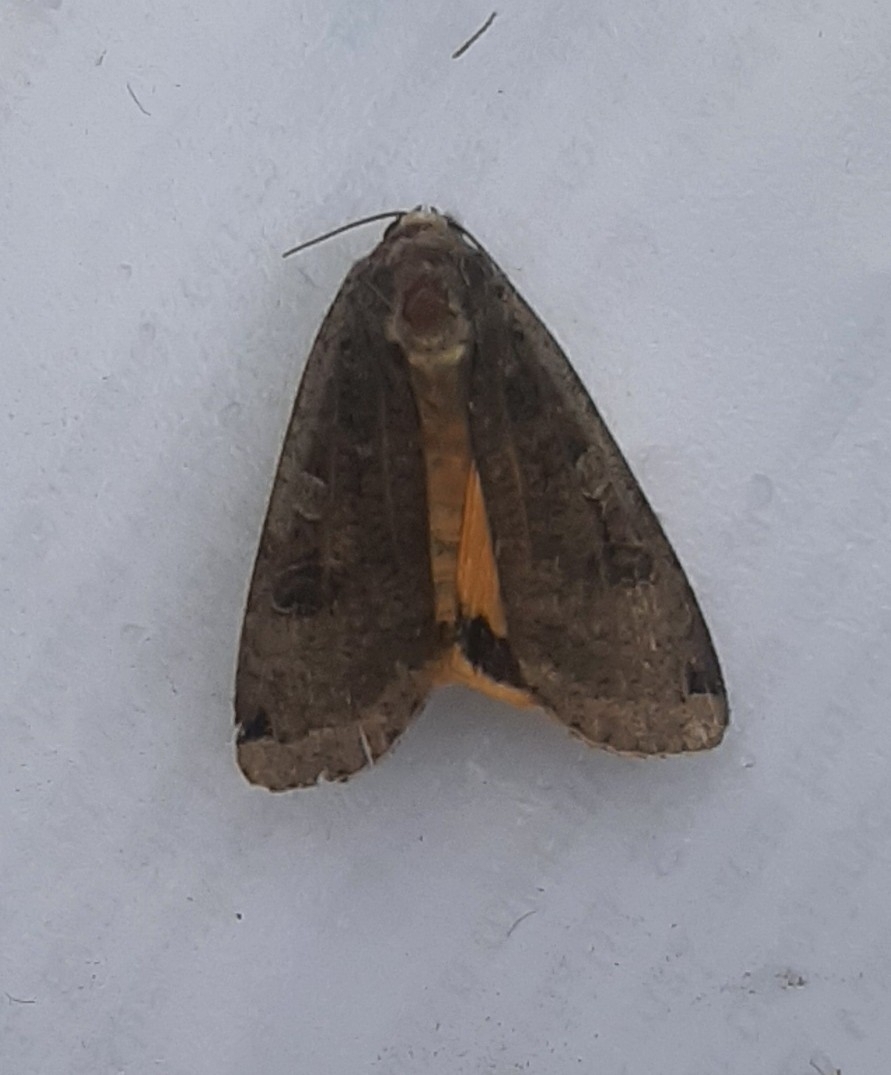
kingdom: Animalia
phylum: Arthropoda
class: Insecta
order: Lepidoptera
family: Noctuidae
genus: Noctua
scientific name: Noctua pronuba
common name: Large yellow underwing
